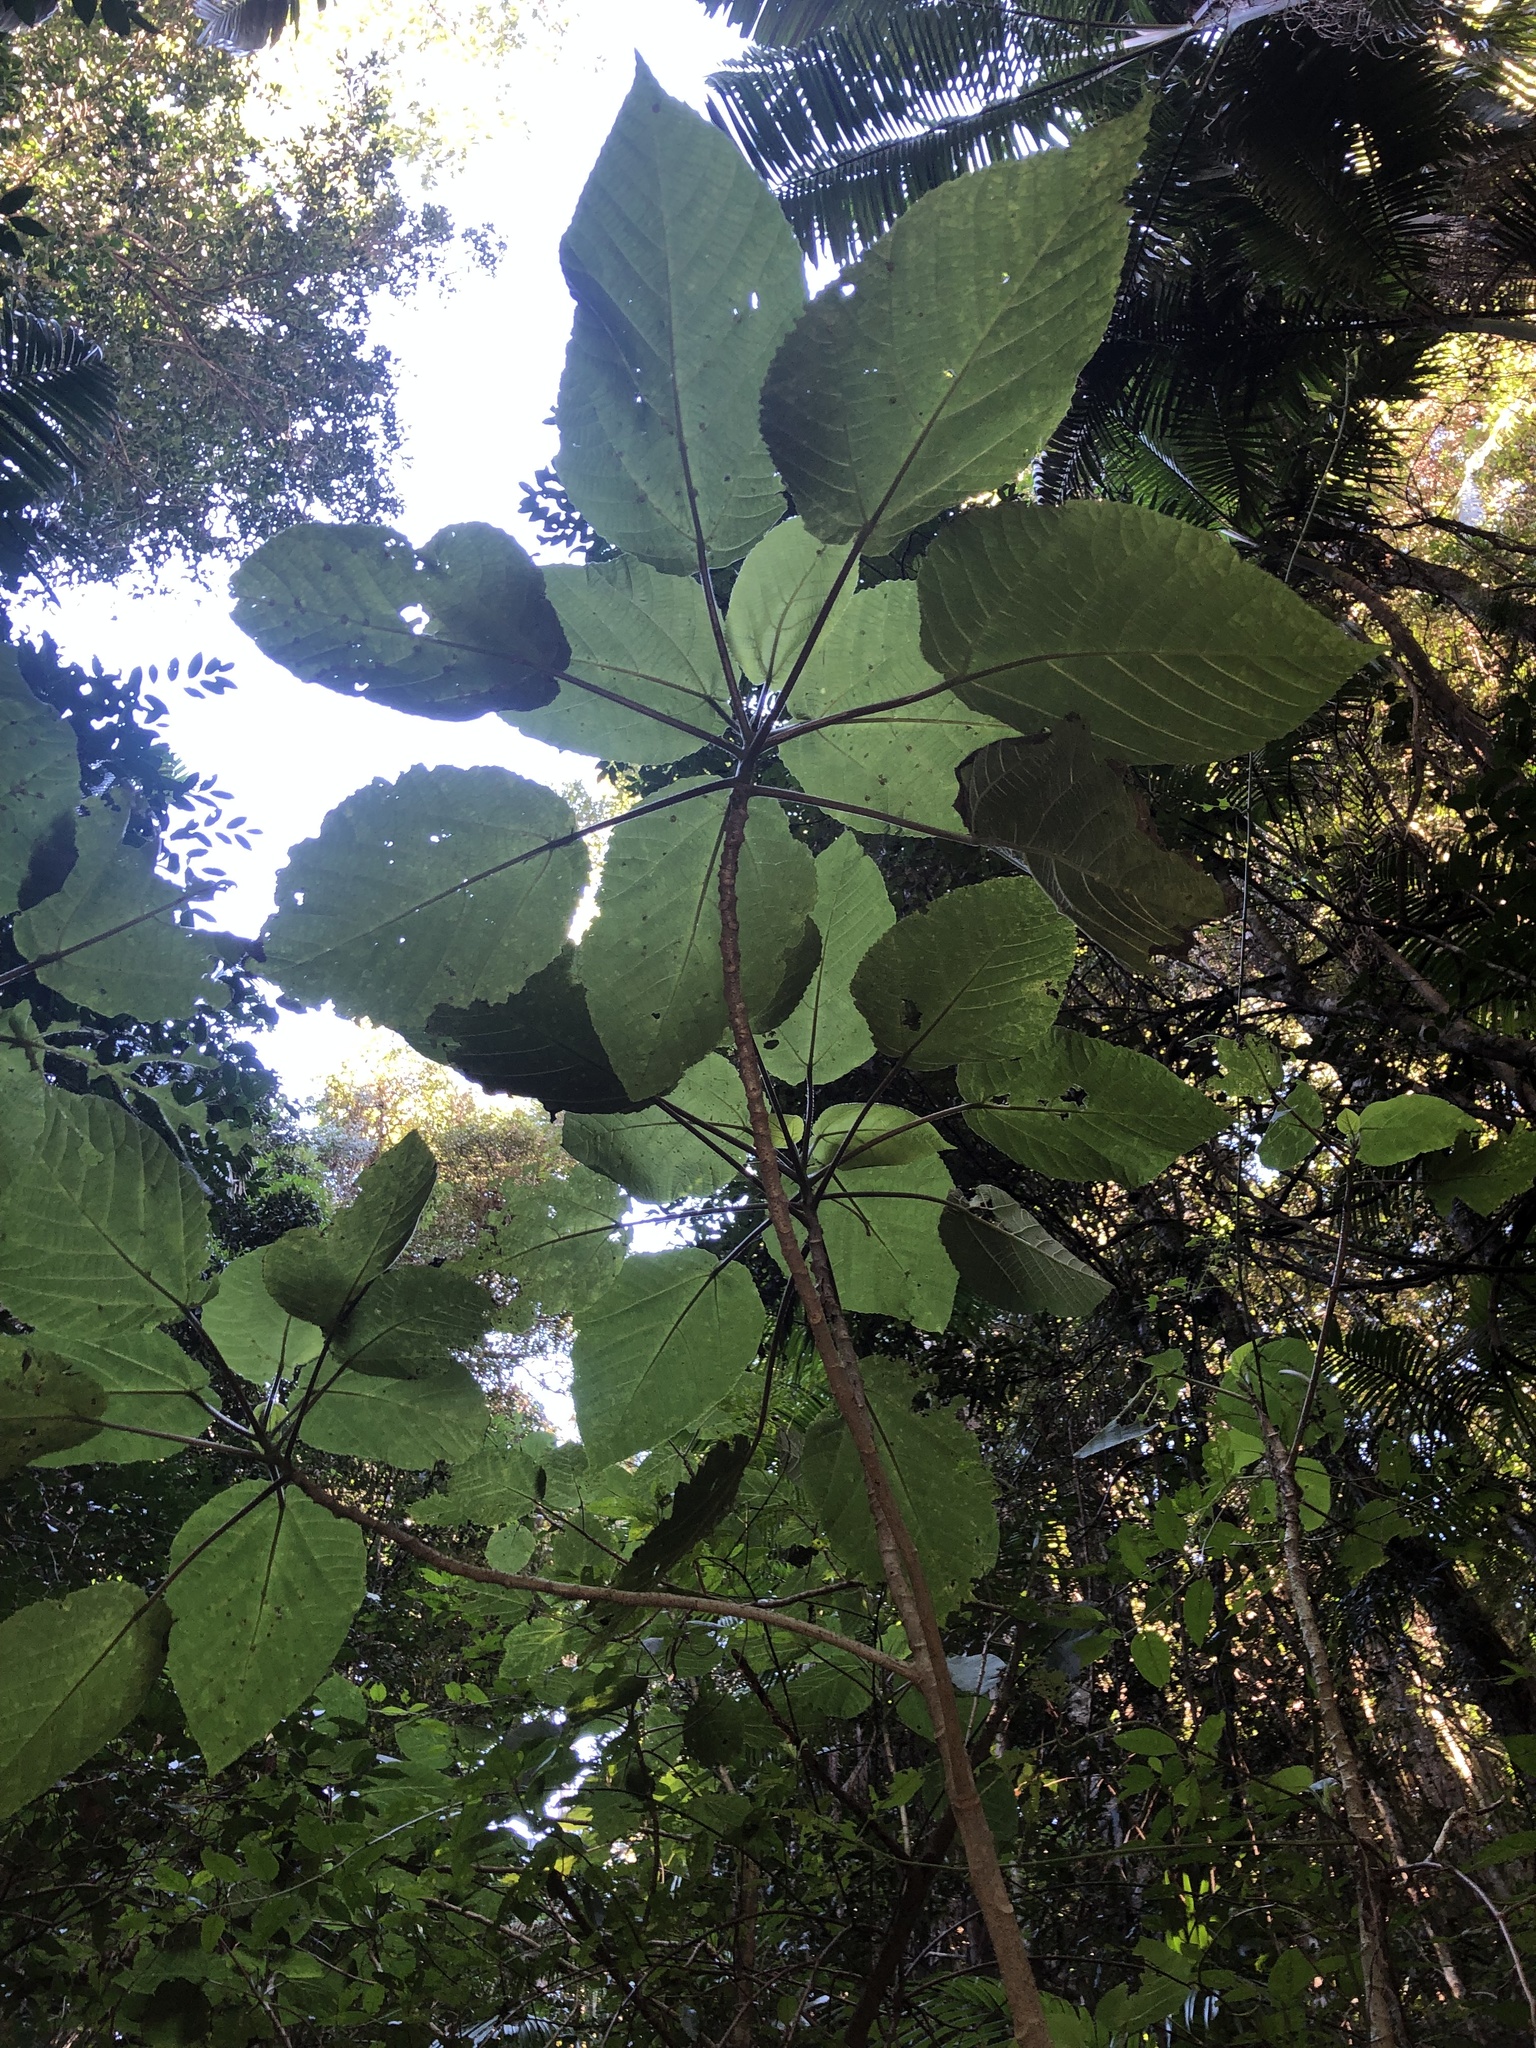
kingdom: Plantae
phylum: Tracheophyta
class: Magnoliopsida
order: Rosales
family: Urticaceae
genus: Dendrocnide
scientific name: Dendrocnide excelsa
